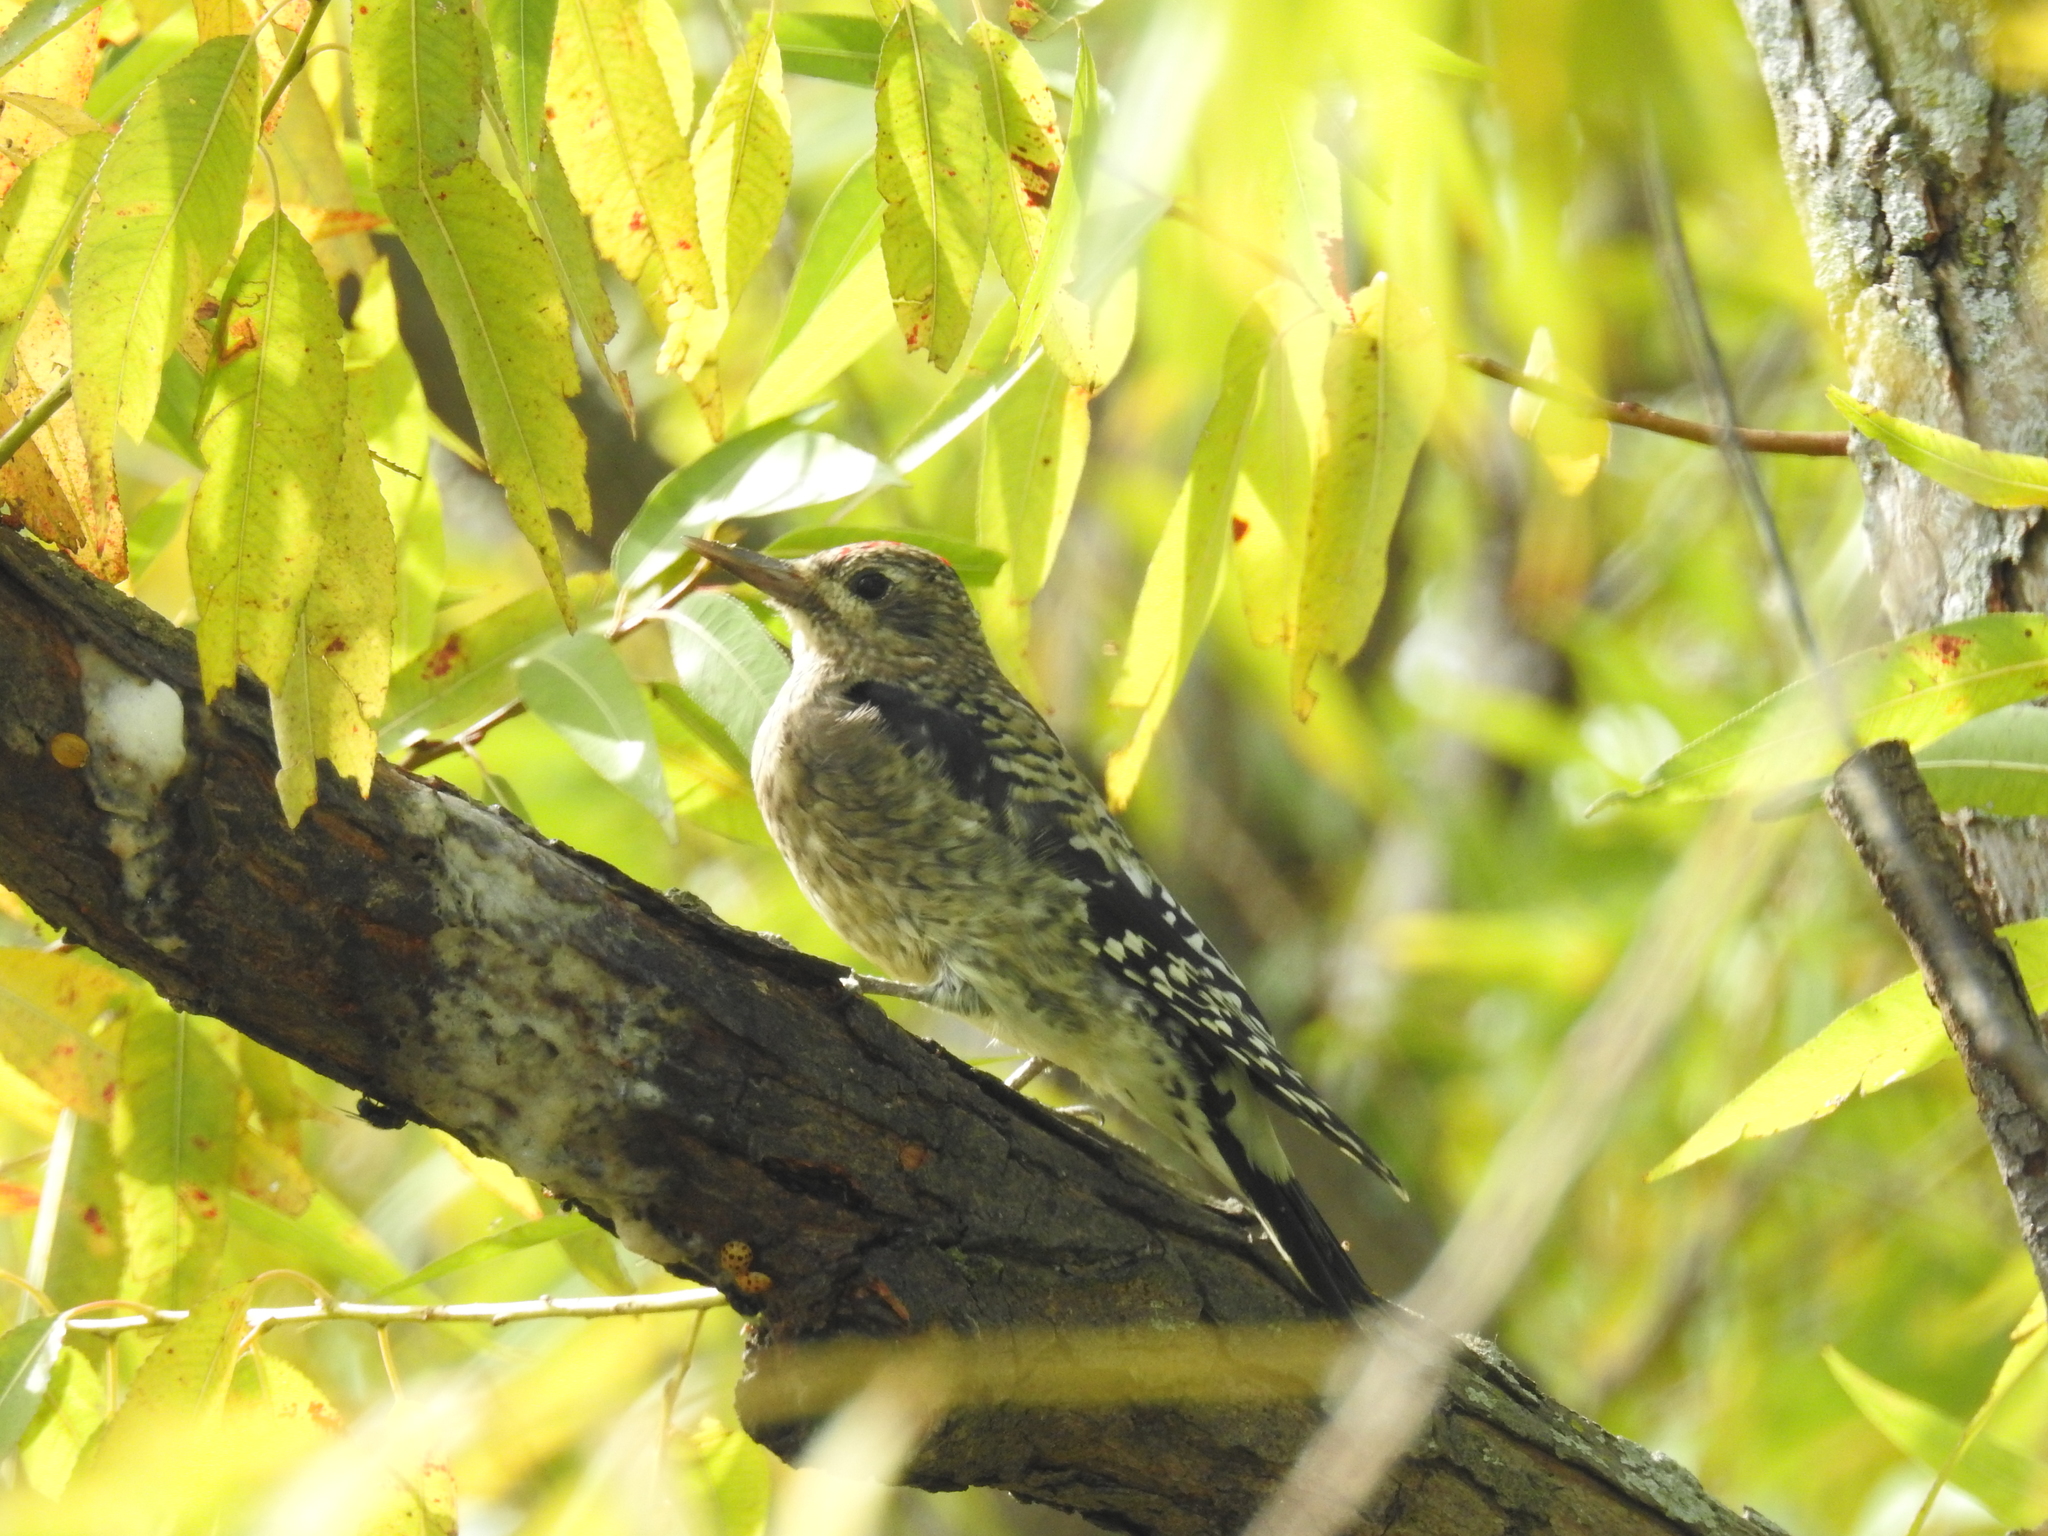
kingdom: Animalia
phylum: Chordata
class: Aves
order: Piciformes
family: Picidae
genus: Sphyrapicus
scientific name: Sphyrapicus varius
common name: Yellow-bellied sapsucker
